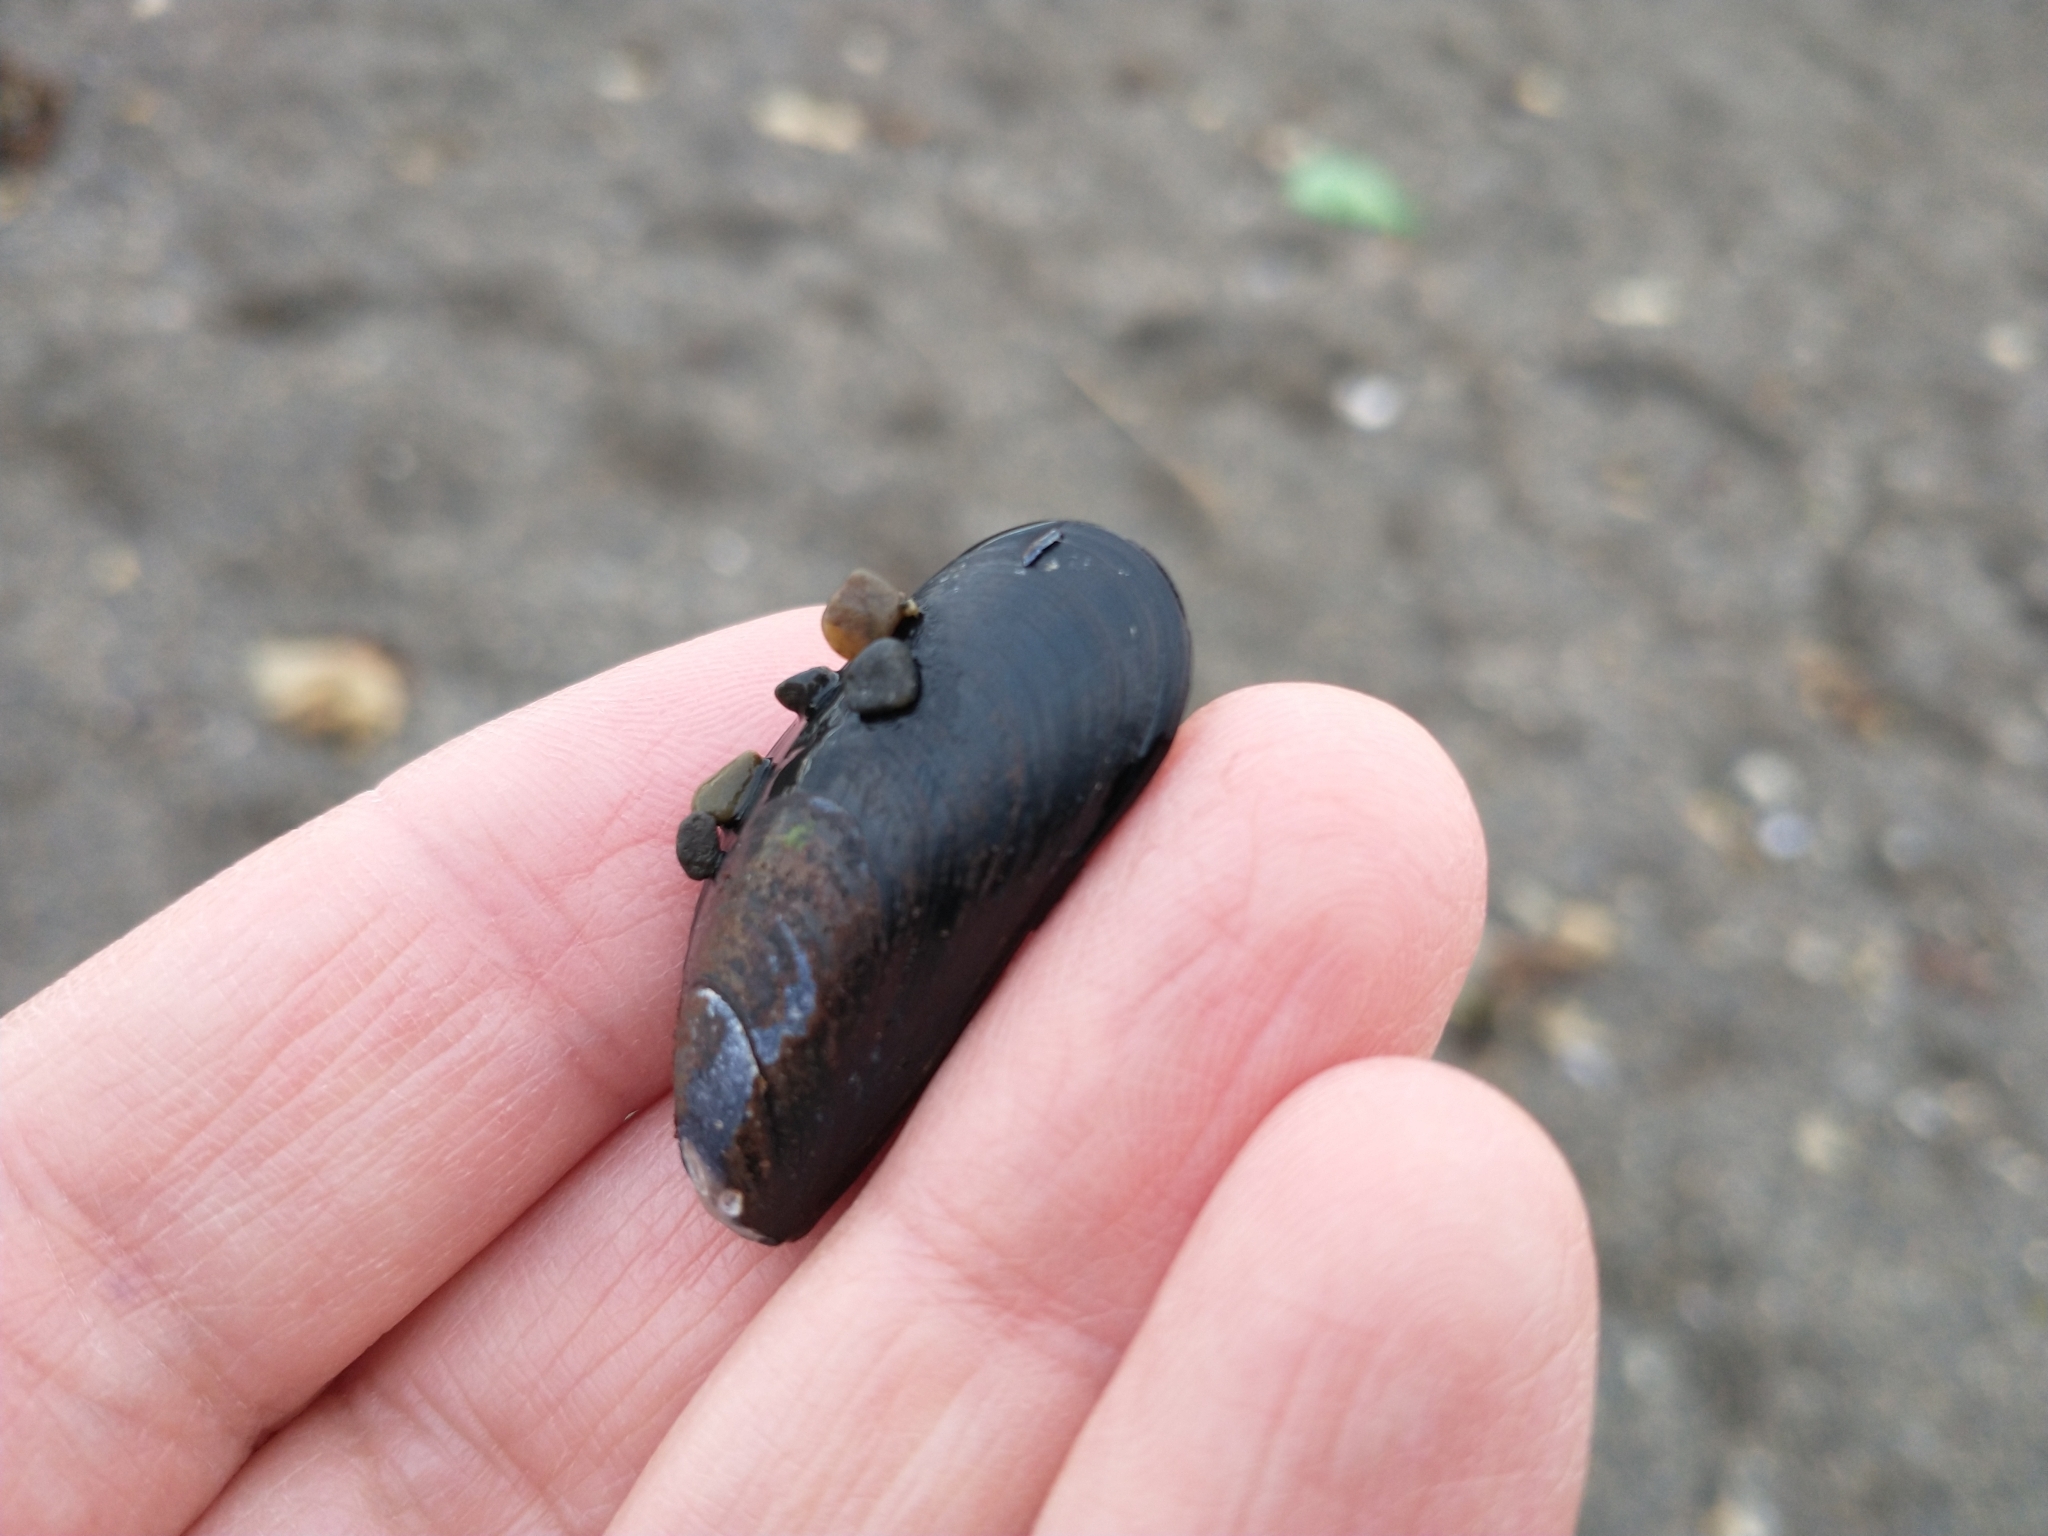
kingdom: Animalia
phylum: Mollusca
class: Bivalvia
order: Mytilida
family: Mytilidae
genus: Mytilus
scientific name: Mytilus chilensis
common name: Chilean mussel
